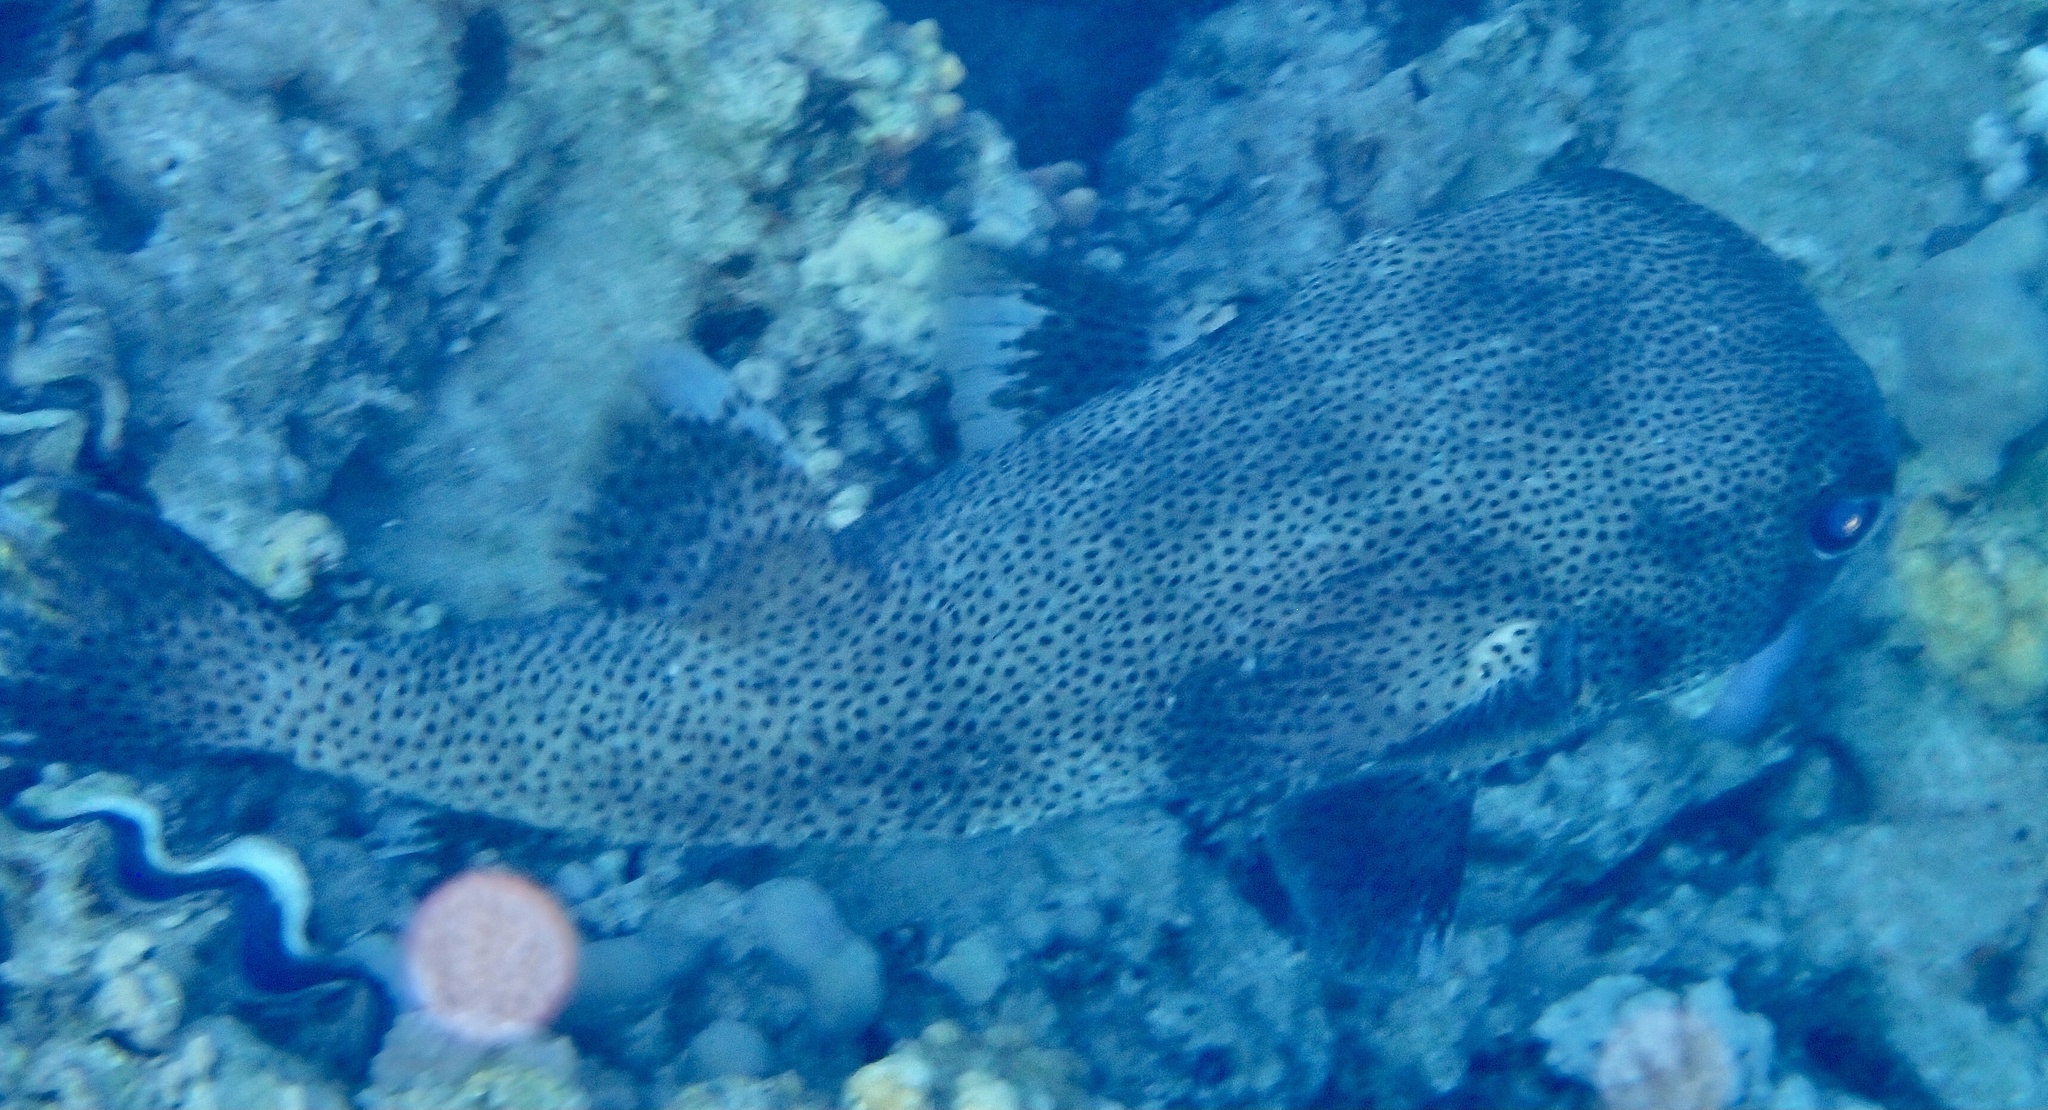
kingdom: Animalia
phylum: Chordata
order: Tetraodontiformes
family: Diodontidae
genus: Diodon
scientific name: Diodon hystrix
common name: Giant porcupinefish
